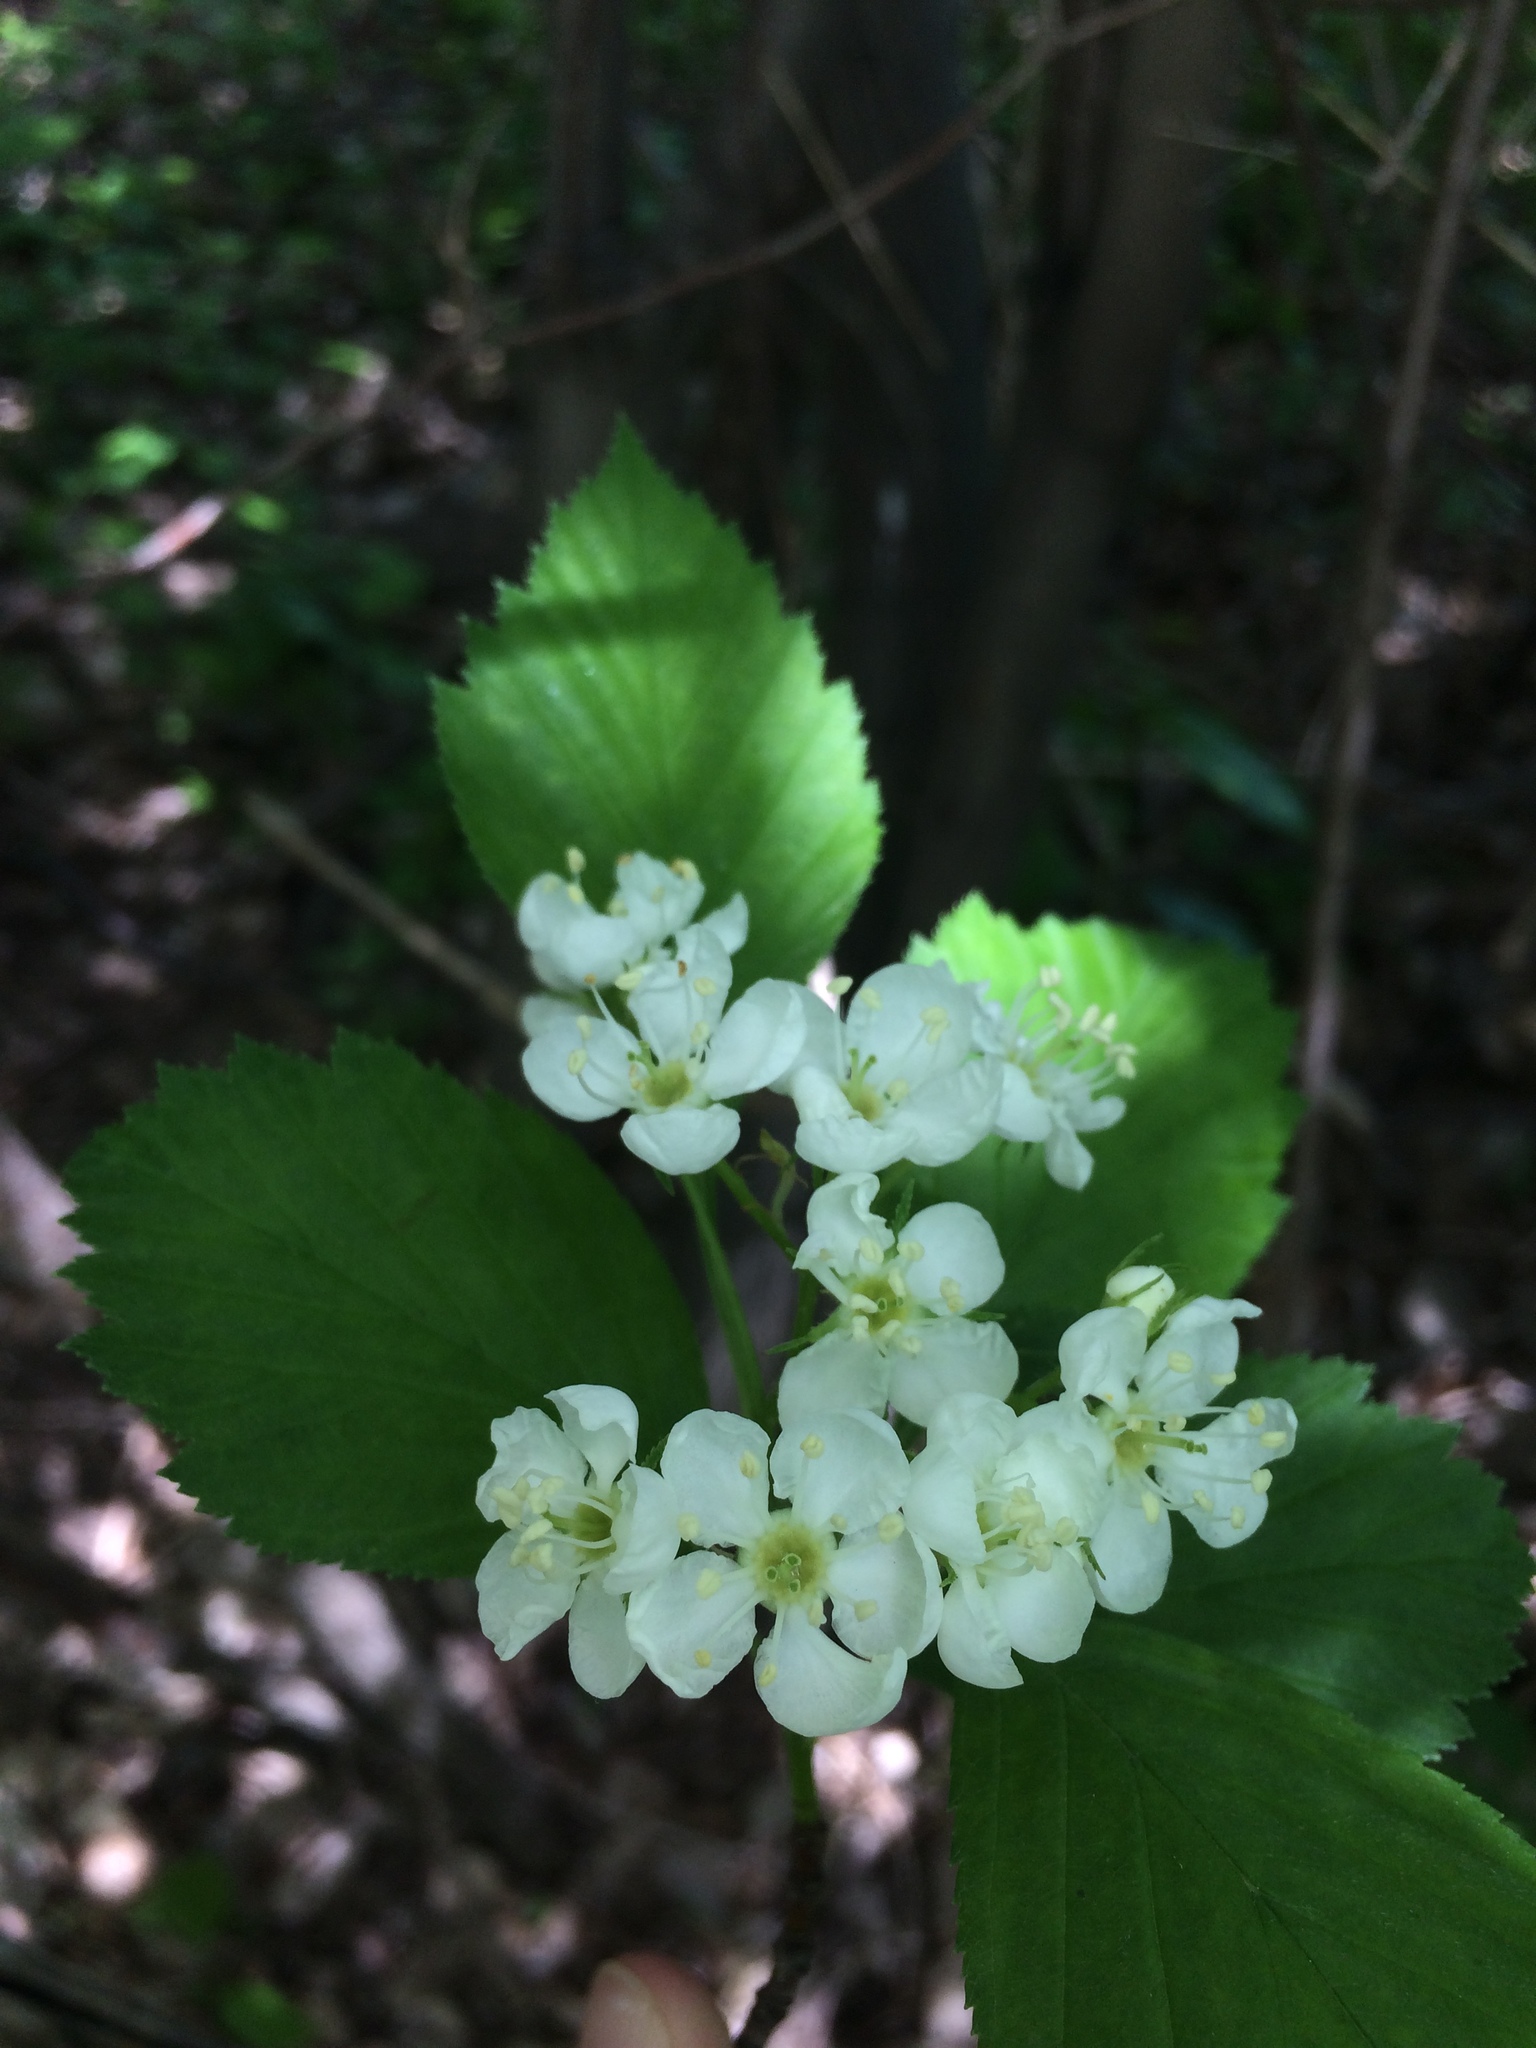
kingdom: Plantae
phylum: Tracheophyta
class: Magnoliopsida
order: Rosales
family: Rosaceae
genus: Crataegus
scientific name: Crataegus macracantha
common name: Large-thorn hawthorn
